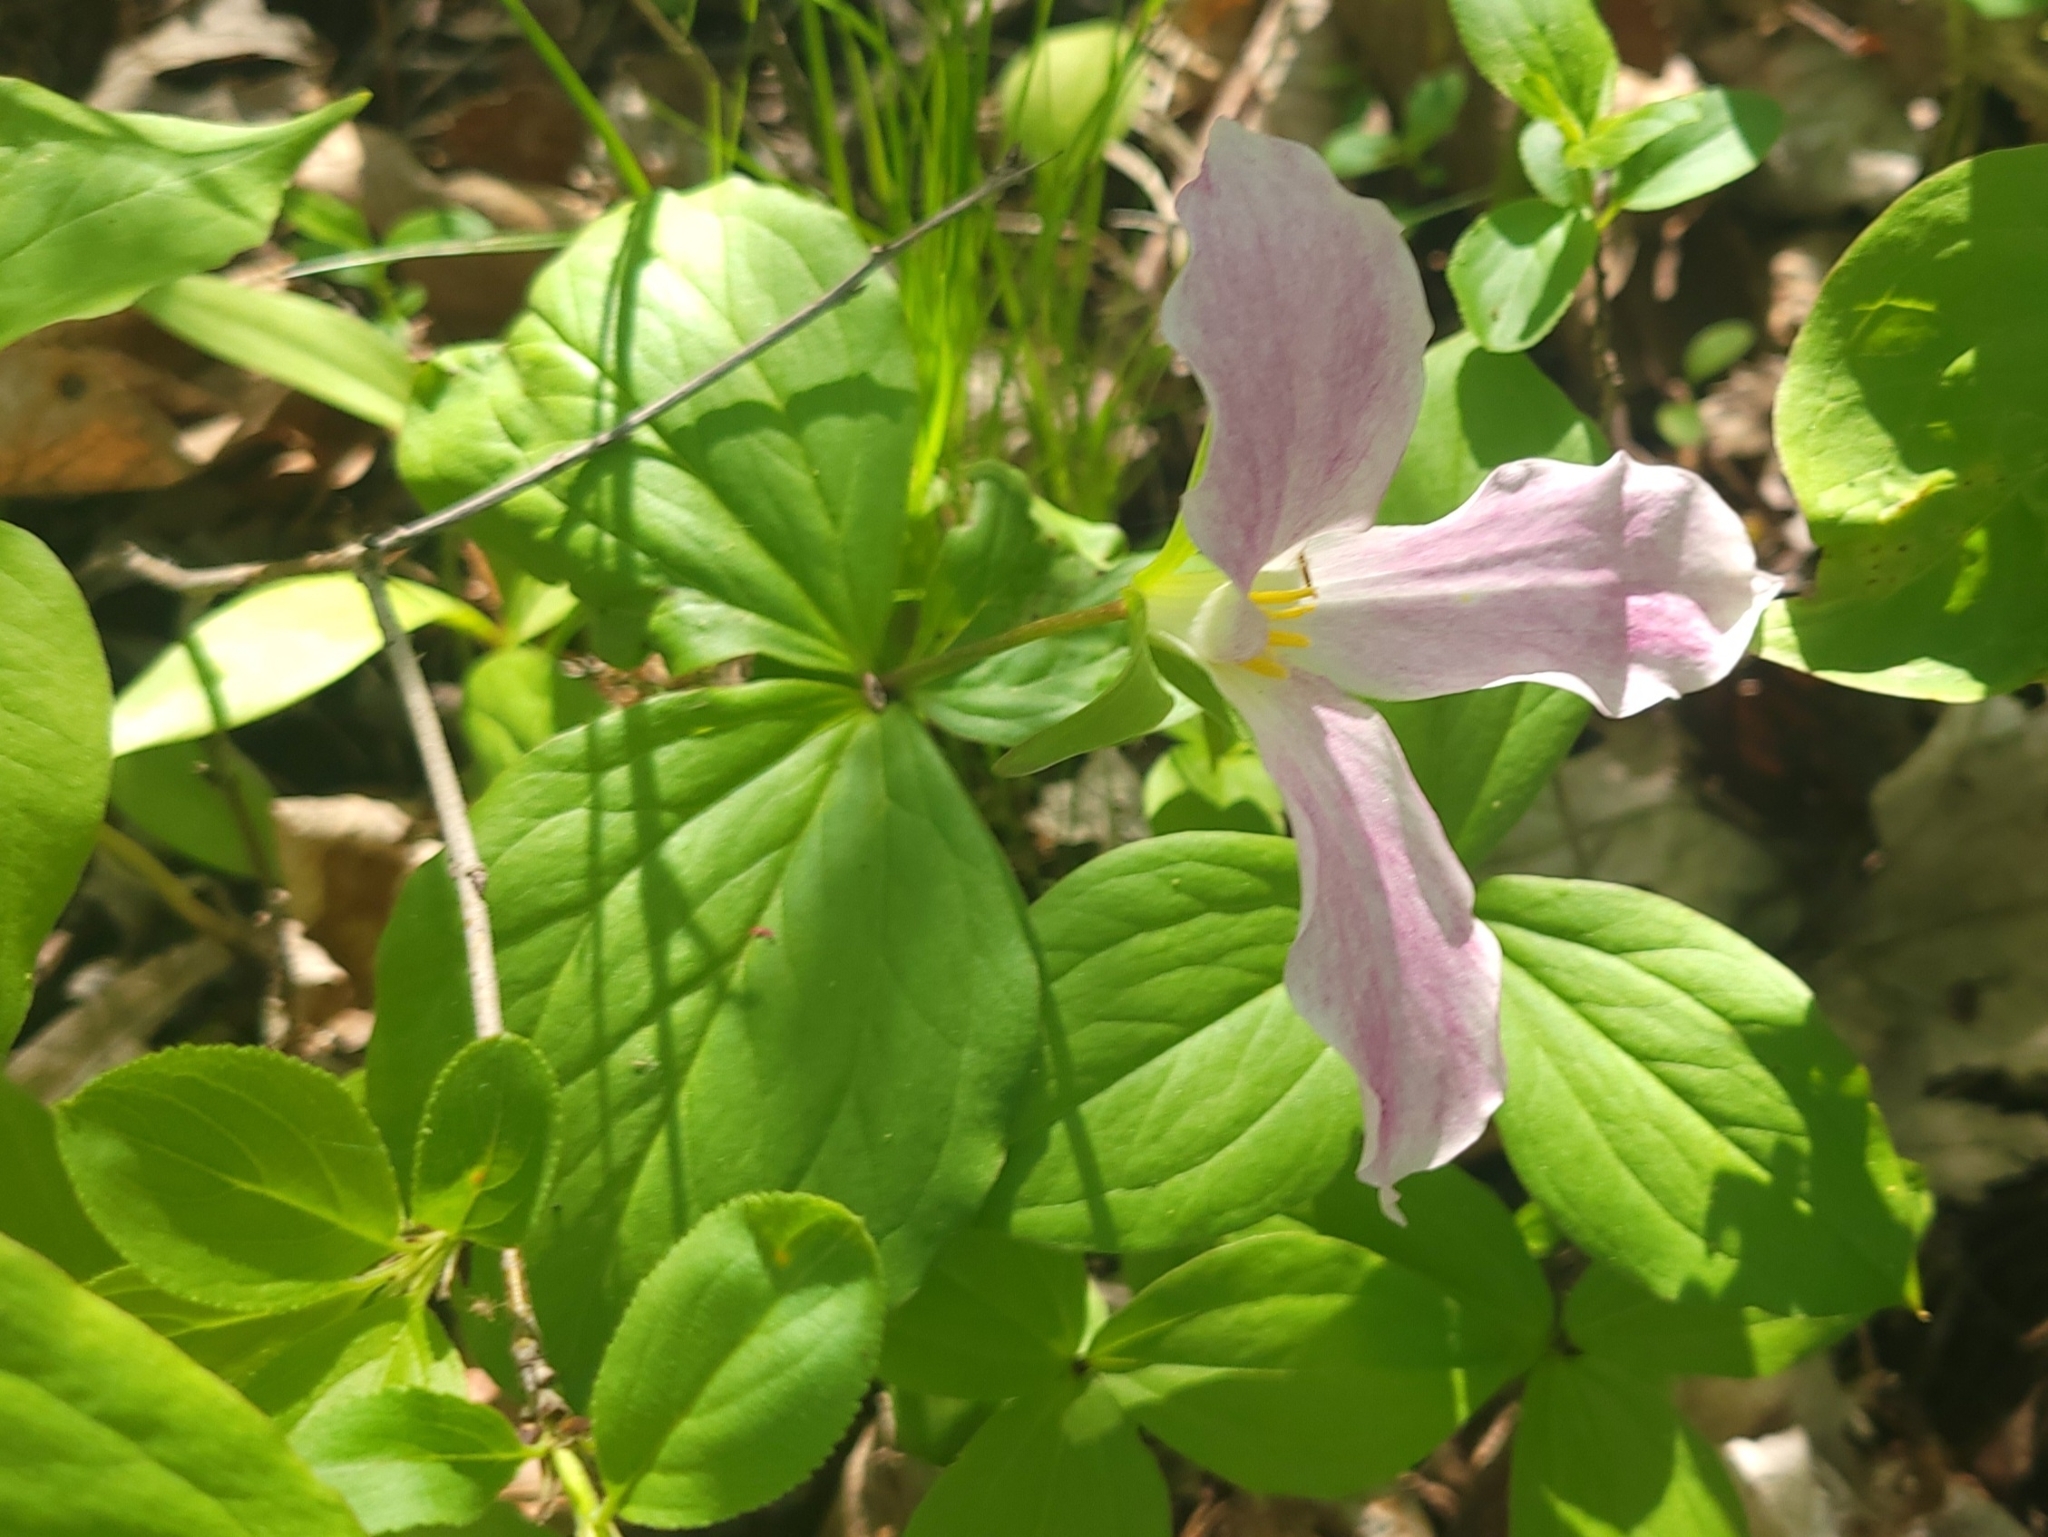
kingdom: Plantae
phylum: Tracheophyta
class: Liliopsida
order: Liliales
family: Melanthiaceae
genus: Trillium
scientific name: Trillium grandiflorum
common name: Great white trillium
